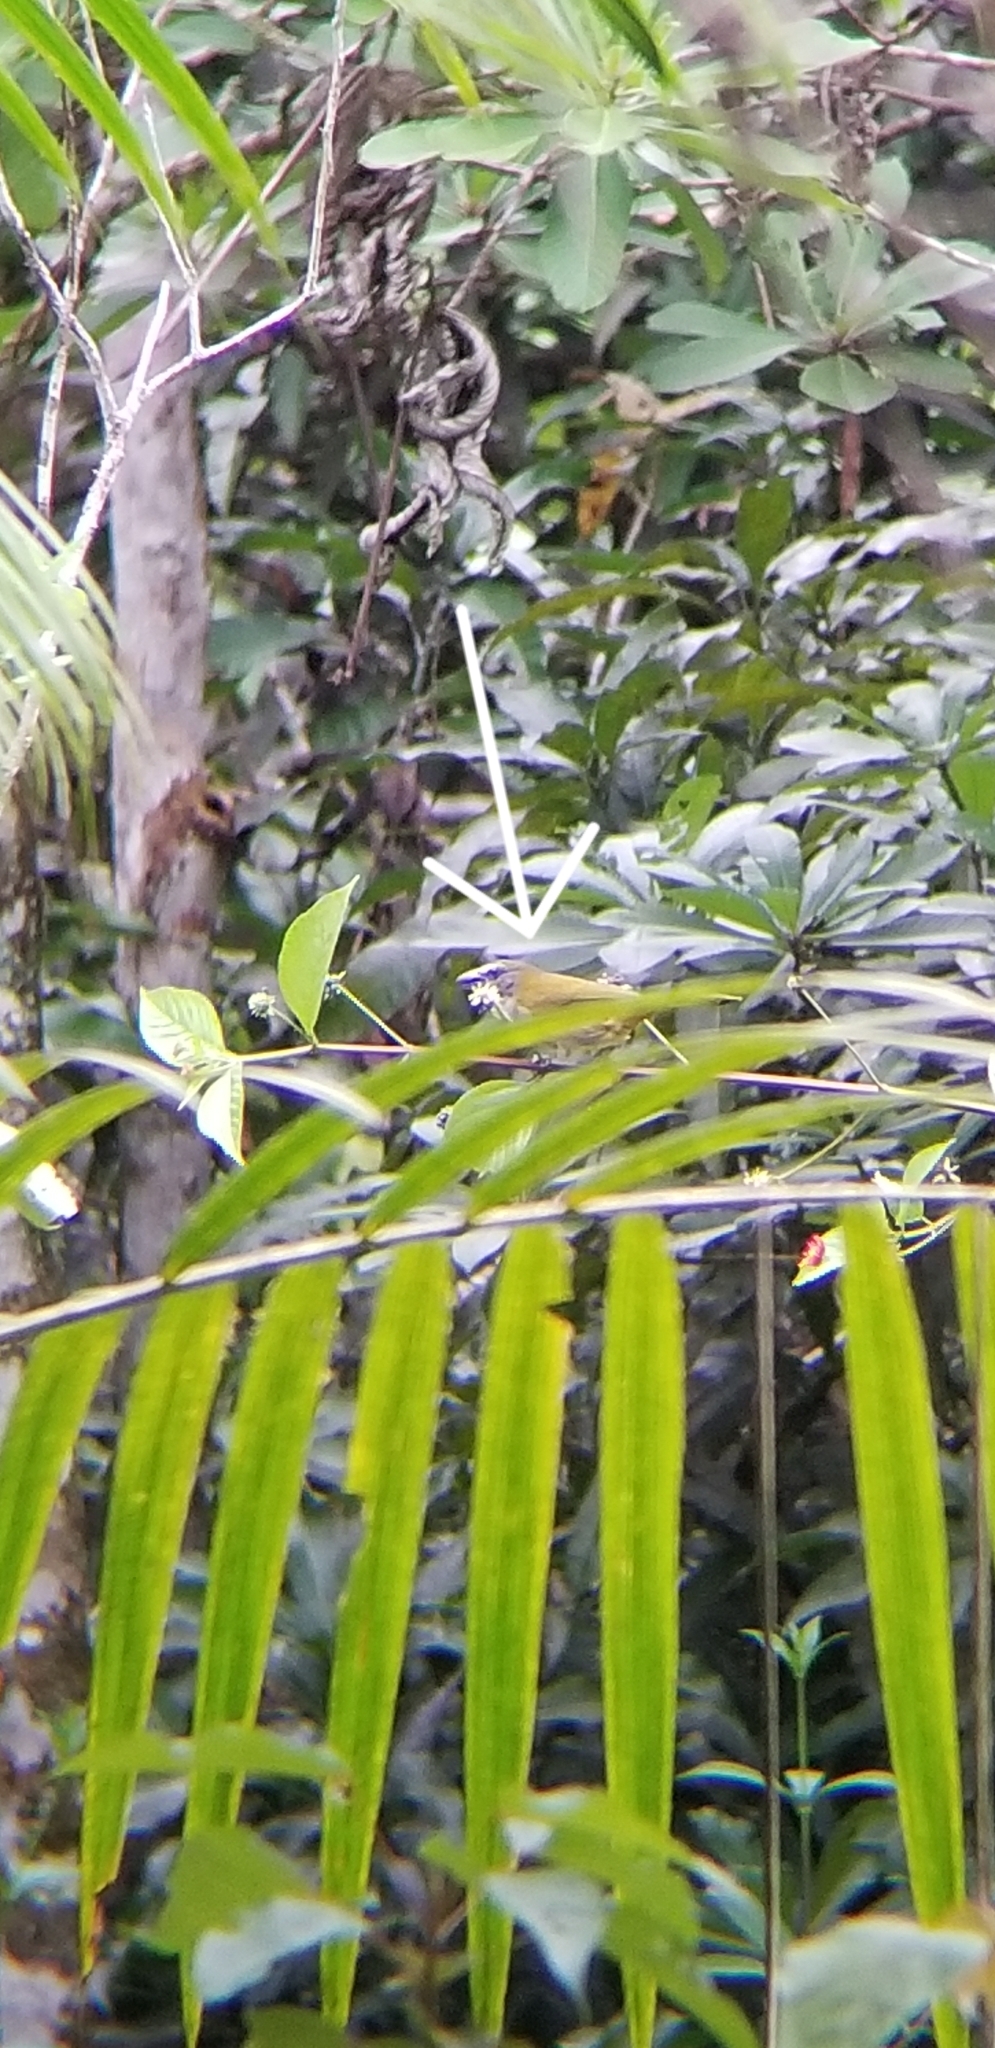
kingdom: Animalia
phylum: Chordata
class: Aves
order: Passeriformes
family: Thraupidae
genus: Saltator
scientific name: Saltator maximus
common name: Buff-throated saltator
